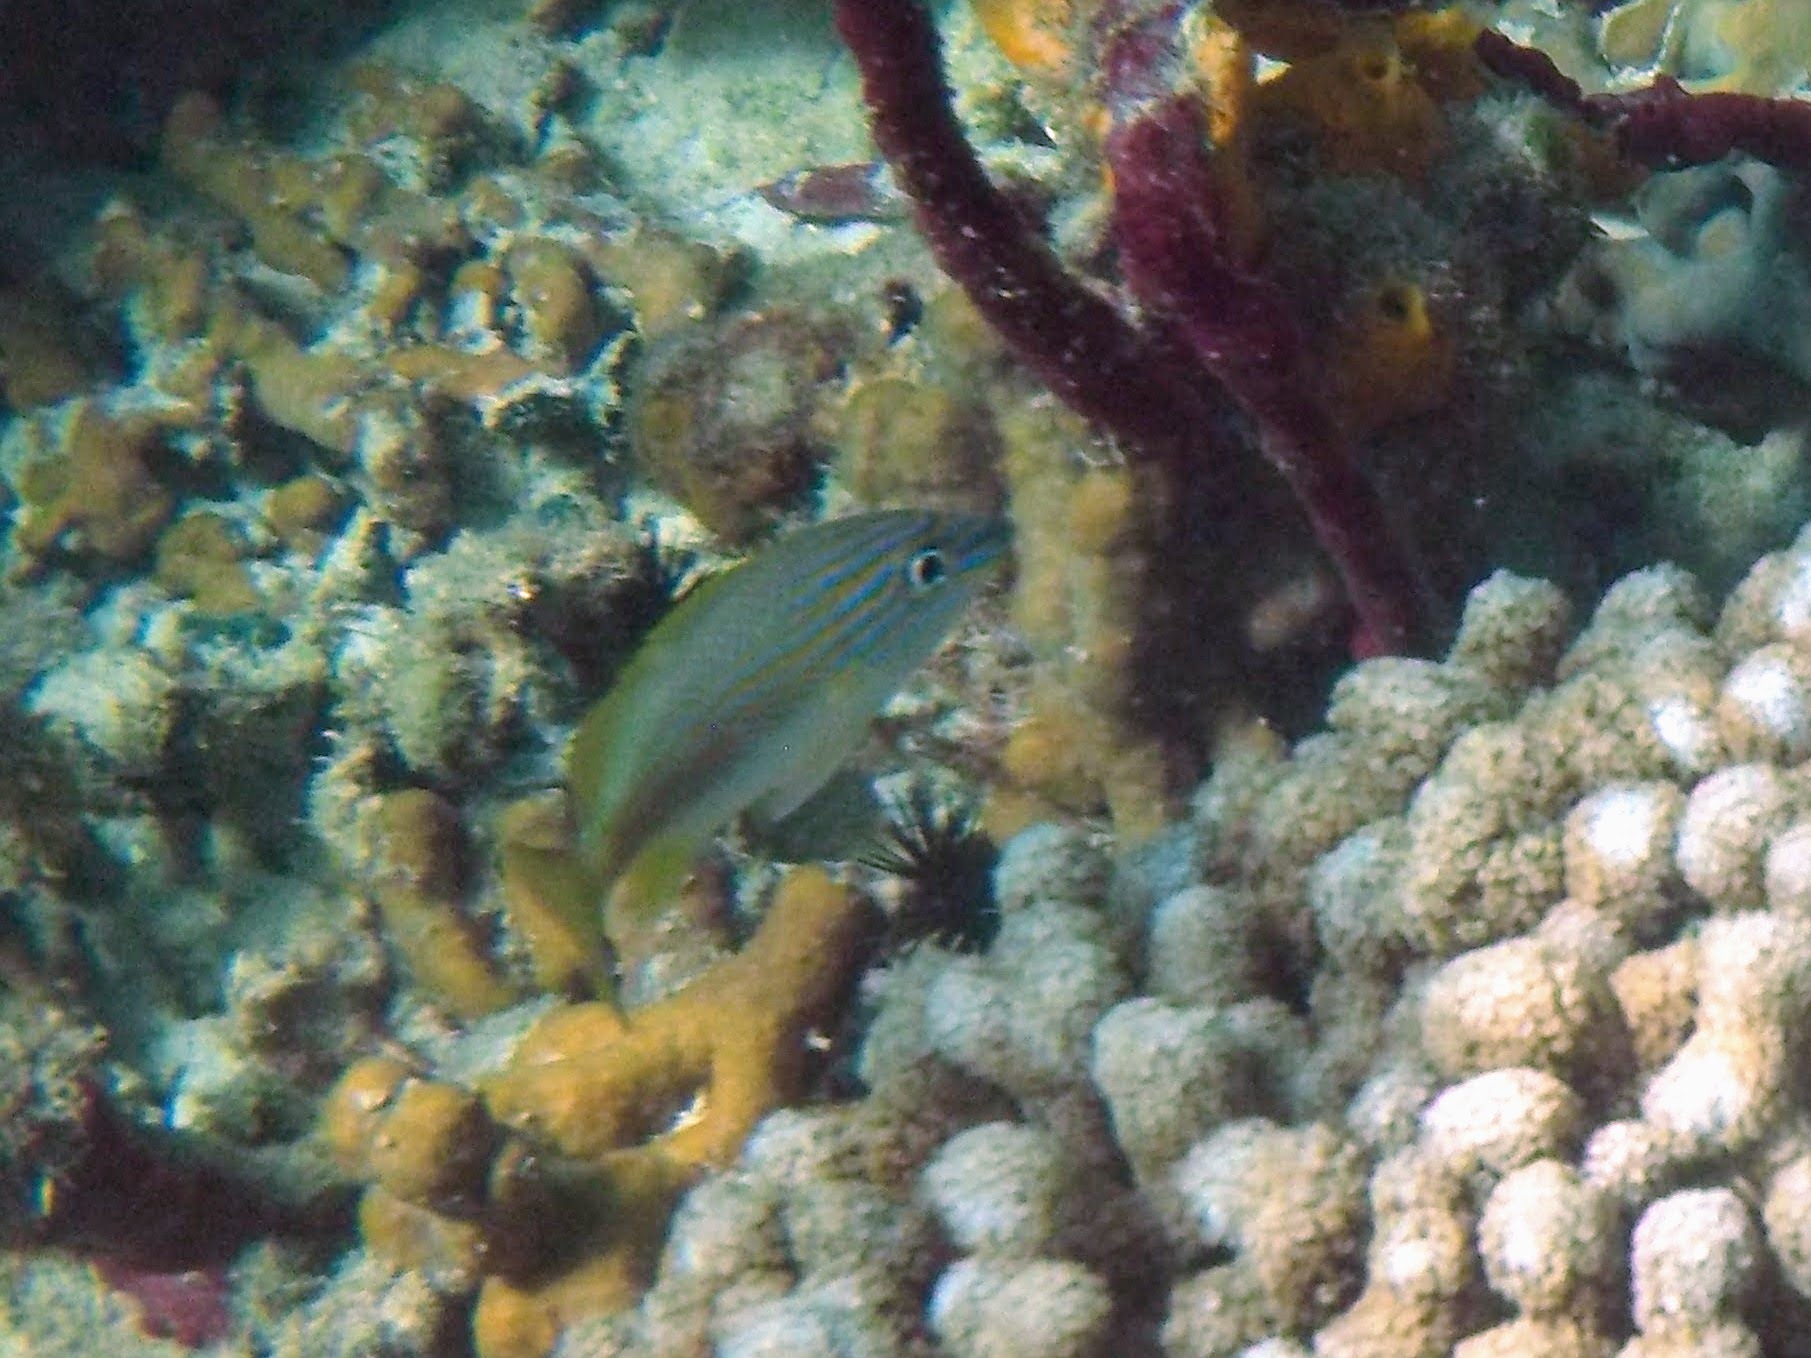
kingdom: Animalia
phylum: Chordata
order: Perciformes
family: Haemulidae
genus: Haemulon
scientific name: Haemulon plumierii
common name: White grunt
